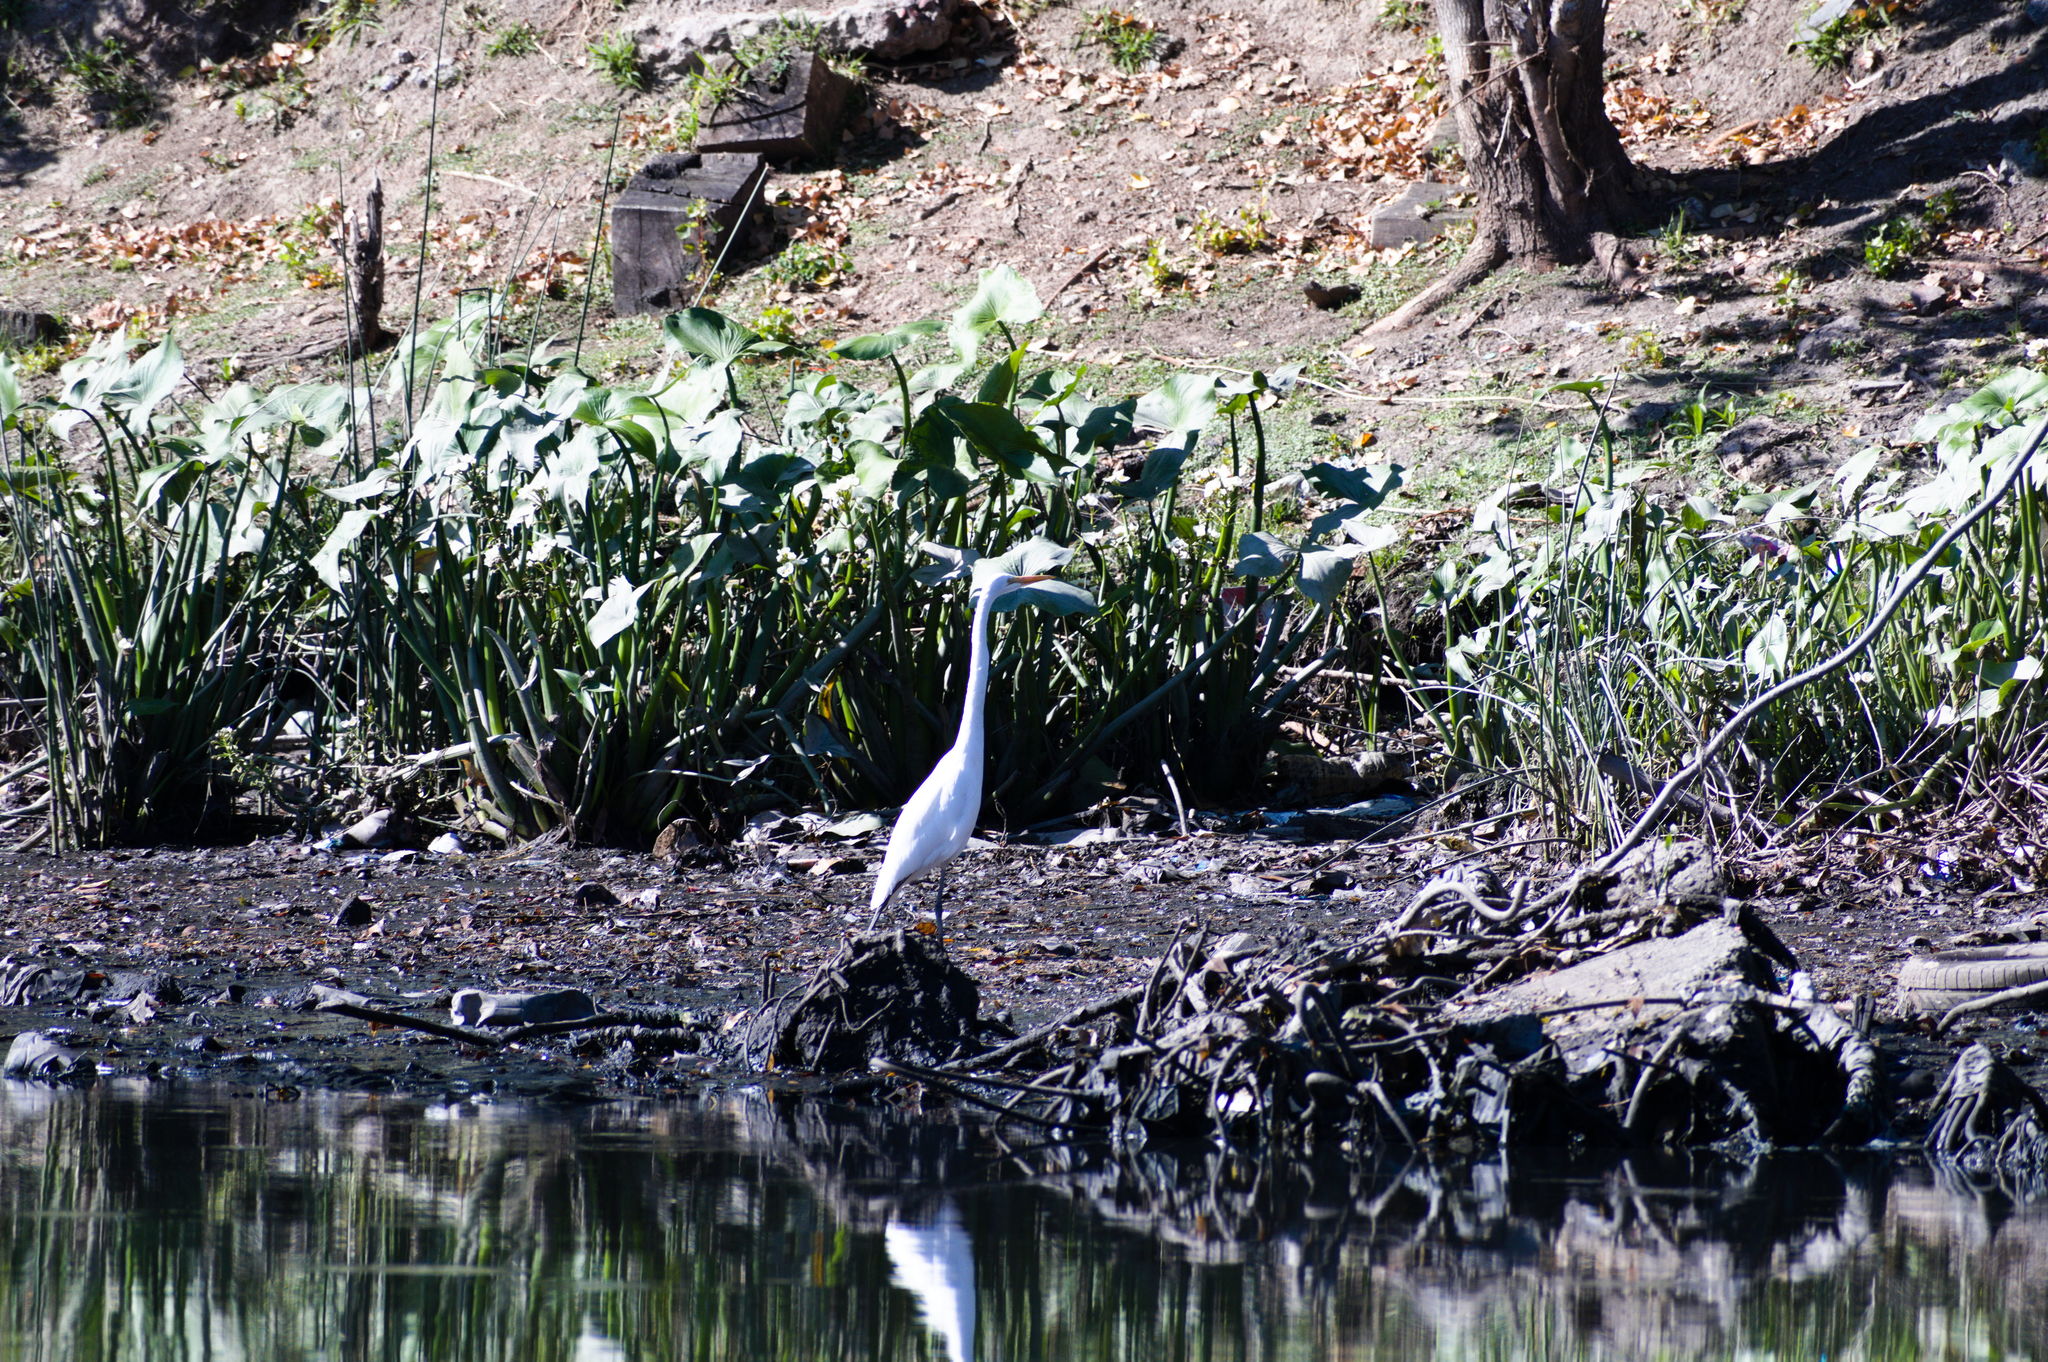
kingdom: Animalia
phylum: Chordata
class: Aves
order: Pelecaniformes
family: Ardeidae
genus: Ardea
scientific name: Ardea alba
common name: Great egret
